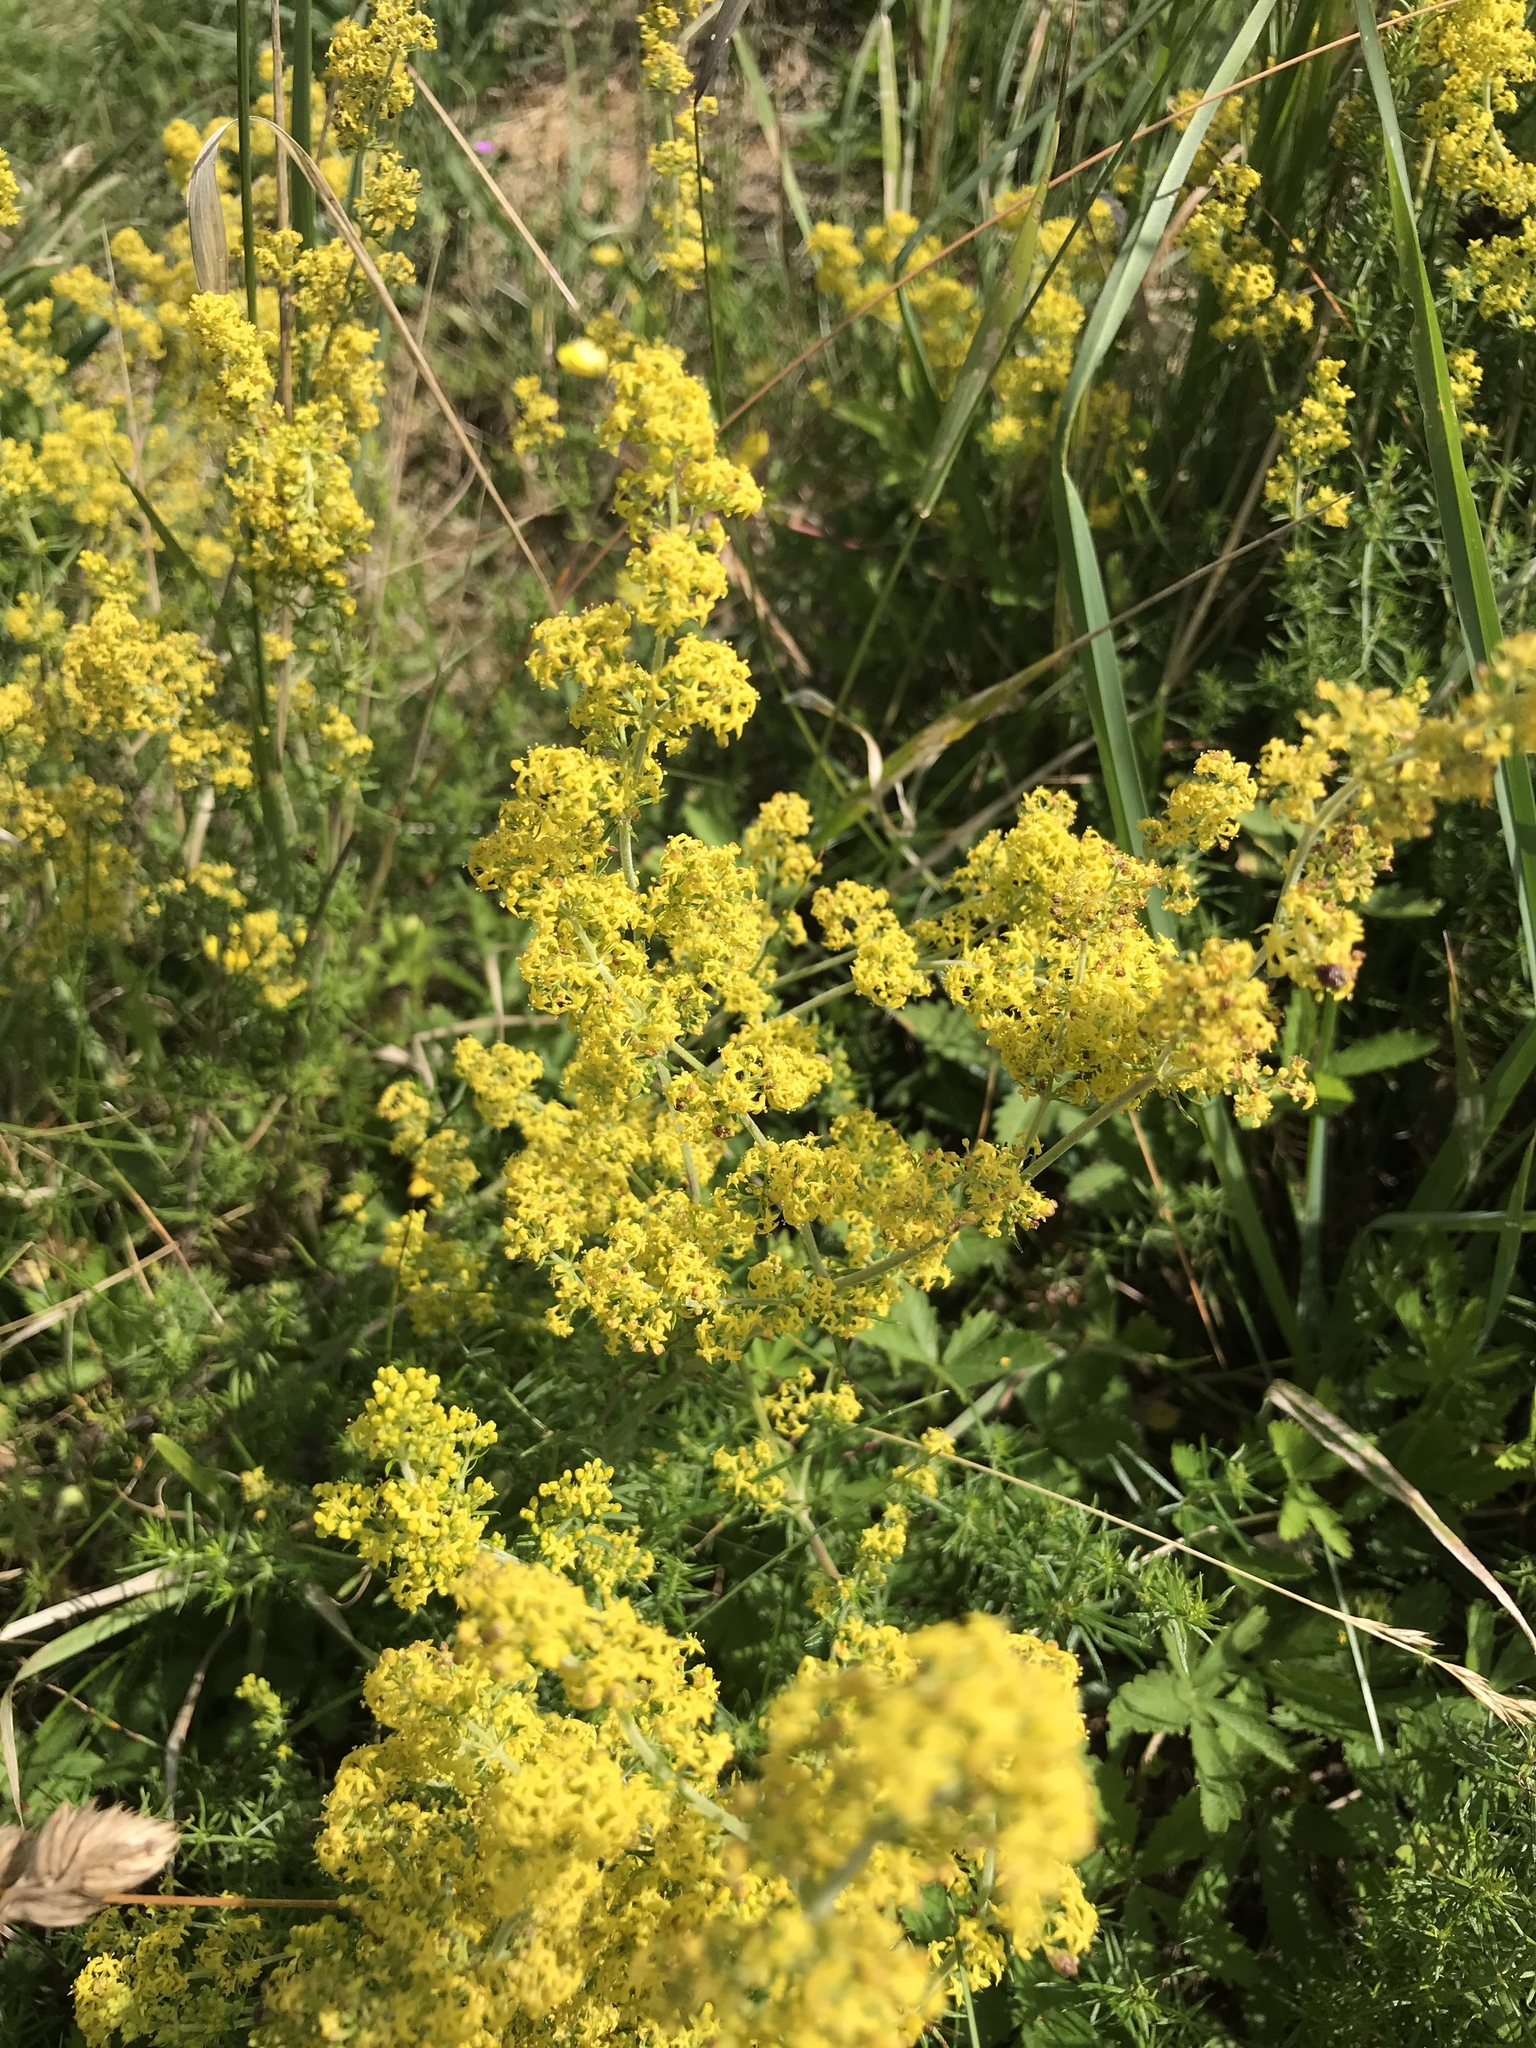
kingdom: Plantae
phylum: Tracheophyta
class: Magnoliopsida
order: Gentianales
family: Rubiaceae
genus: Galium
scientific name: Galium verum
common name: Lady's bedstraw
